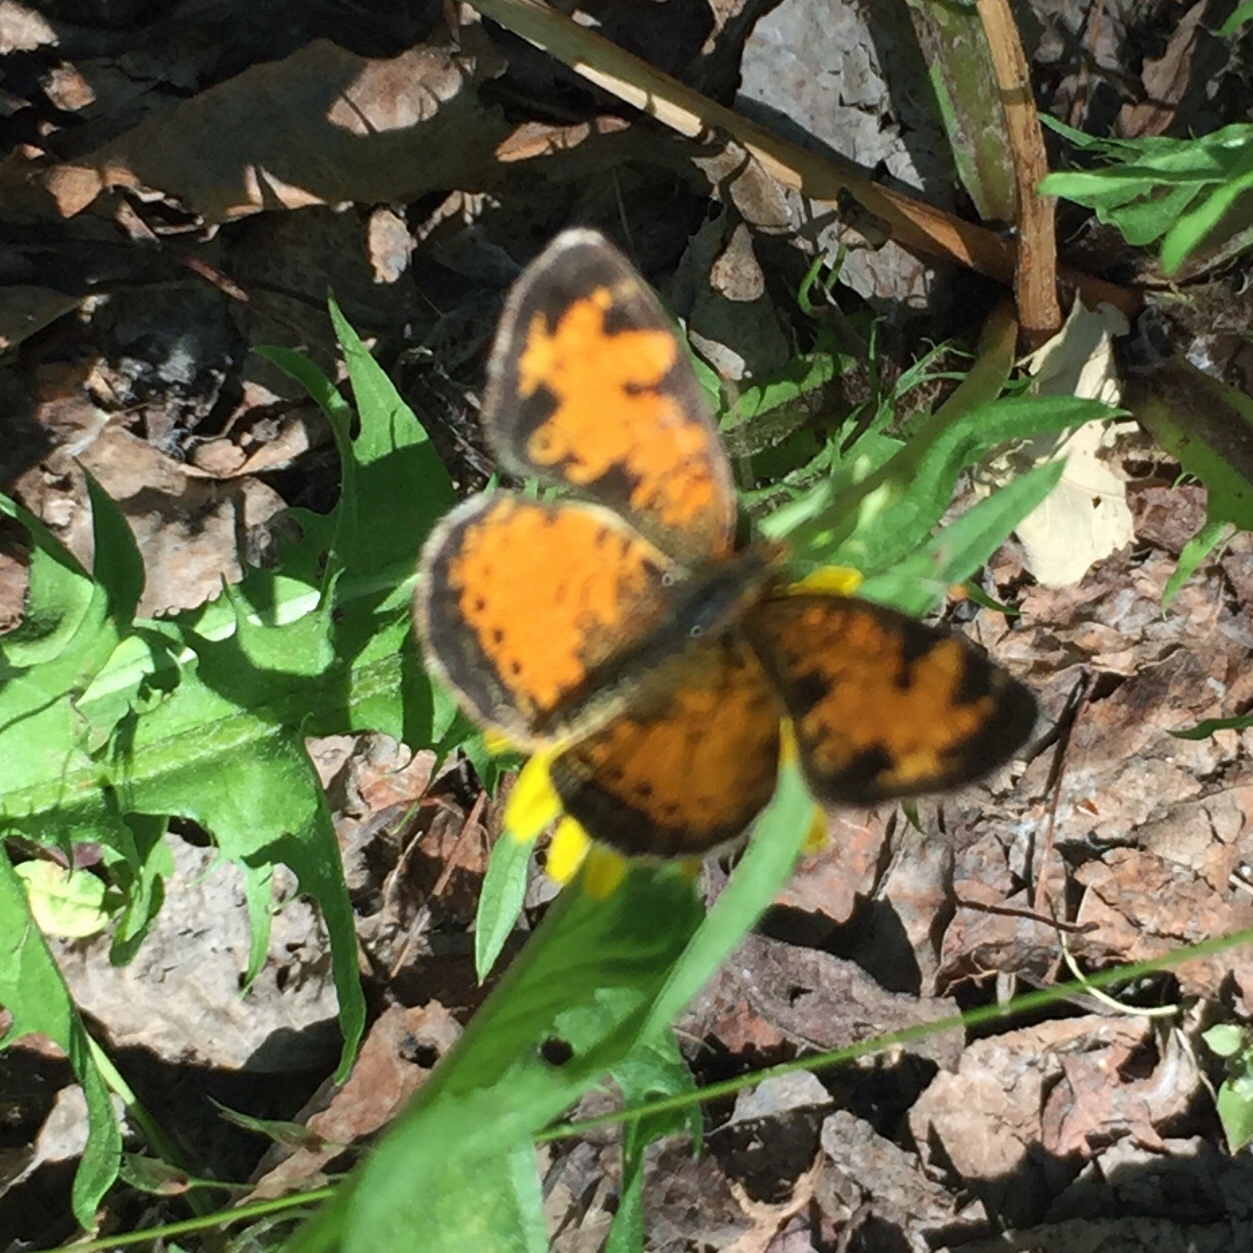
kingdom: Animalia
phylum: Arthropoda
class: Insecta
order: Lepidoptera
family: Nymphalidae
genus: Phyciodes
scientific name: Phyciodes tharos
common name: Pearl crescent
